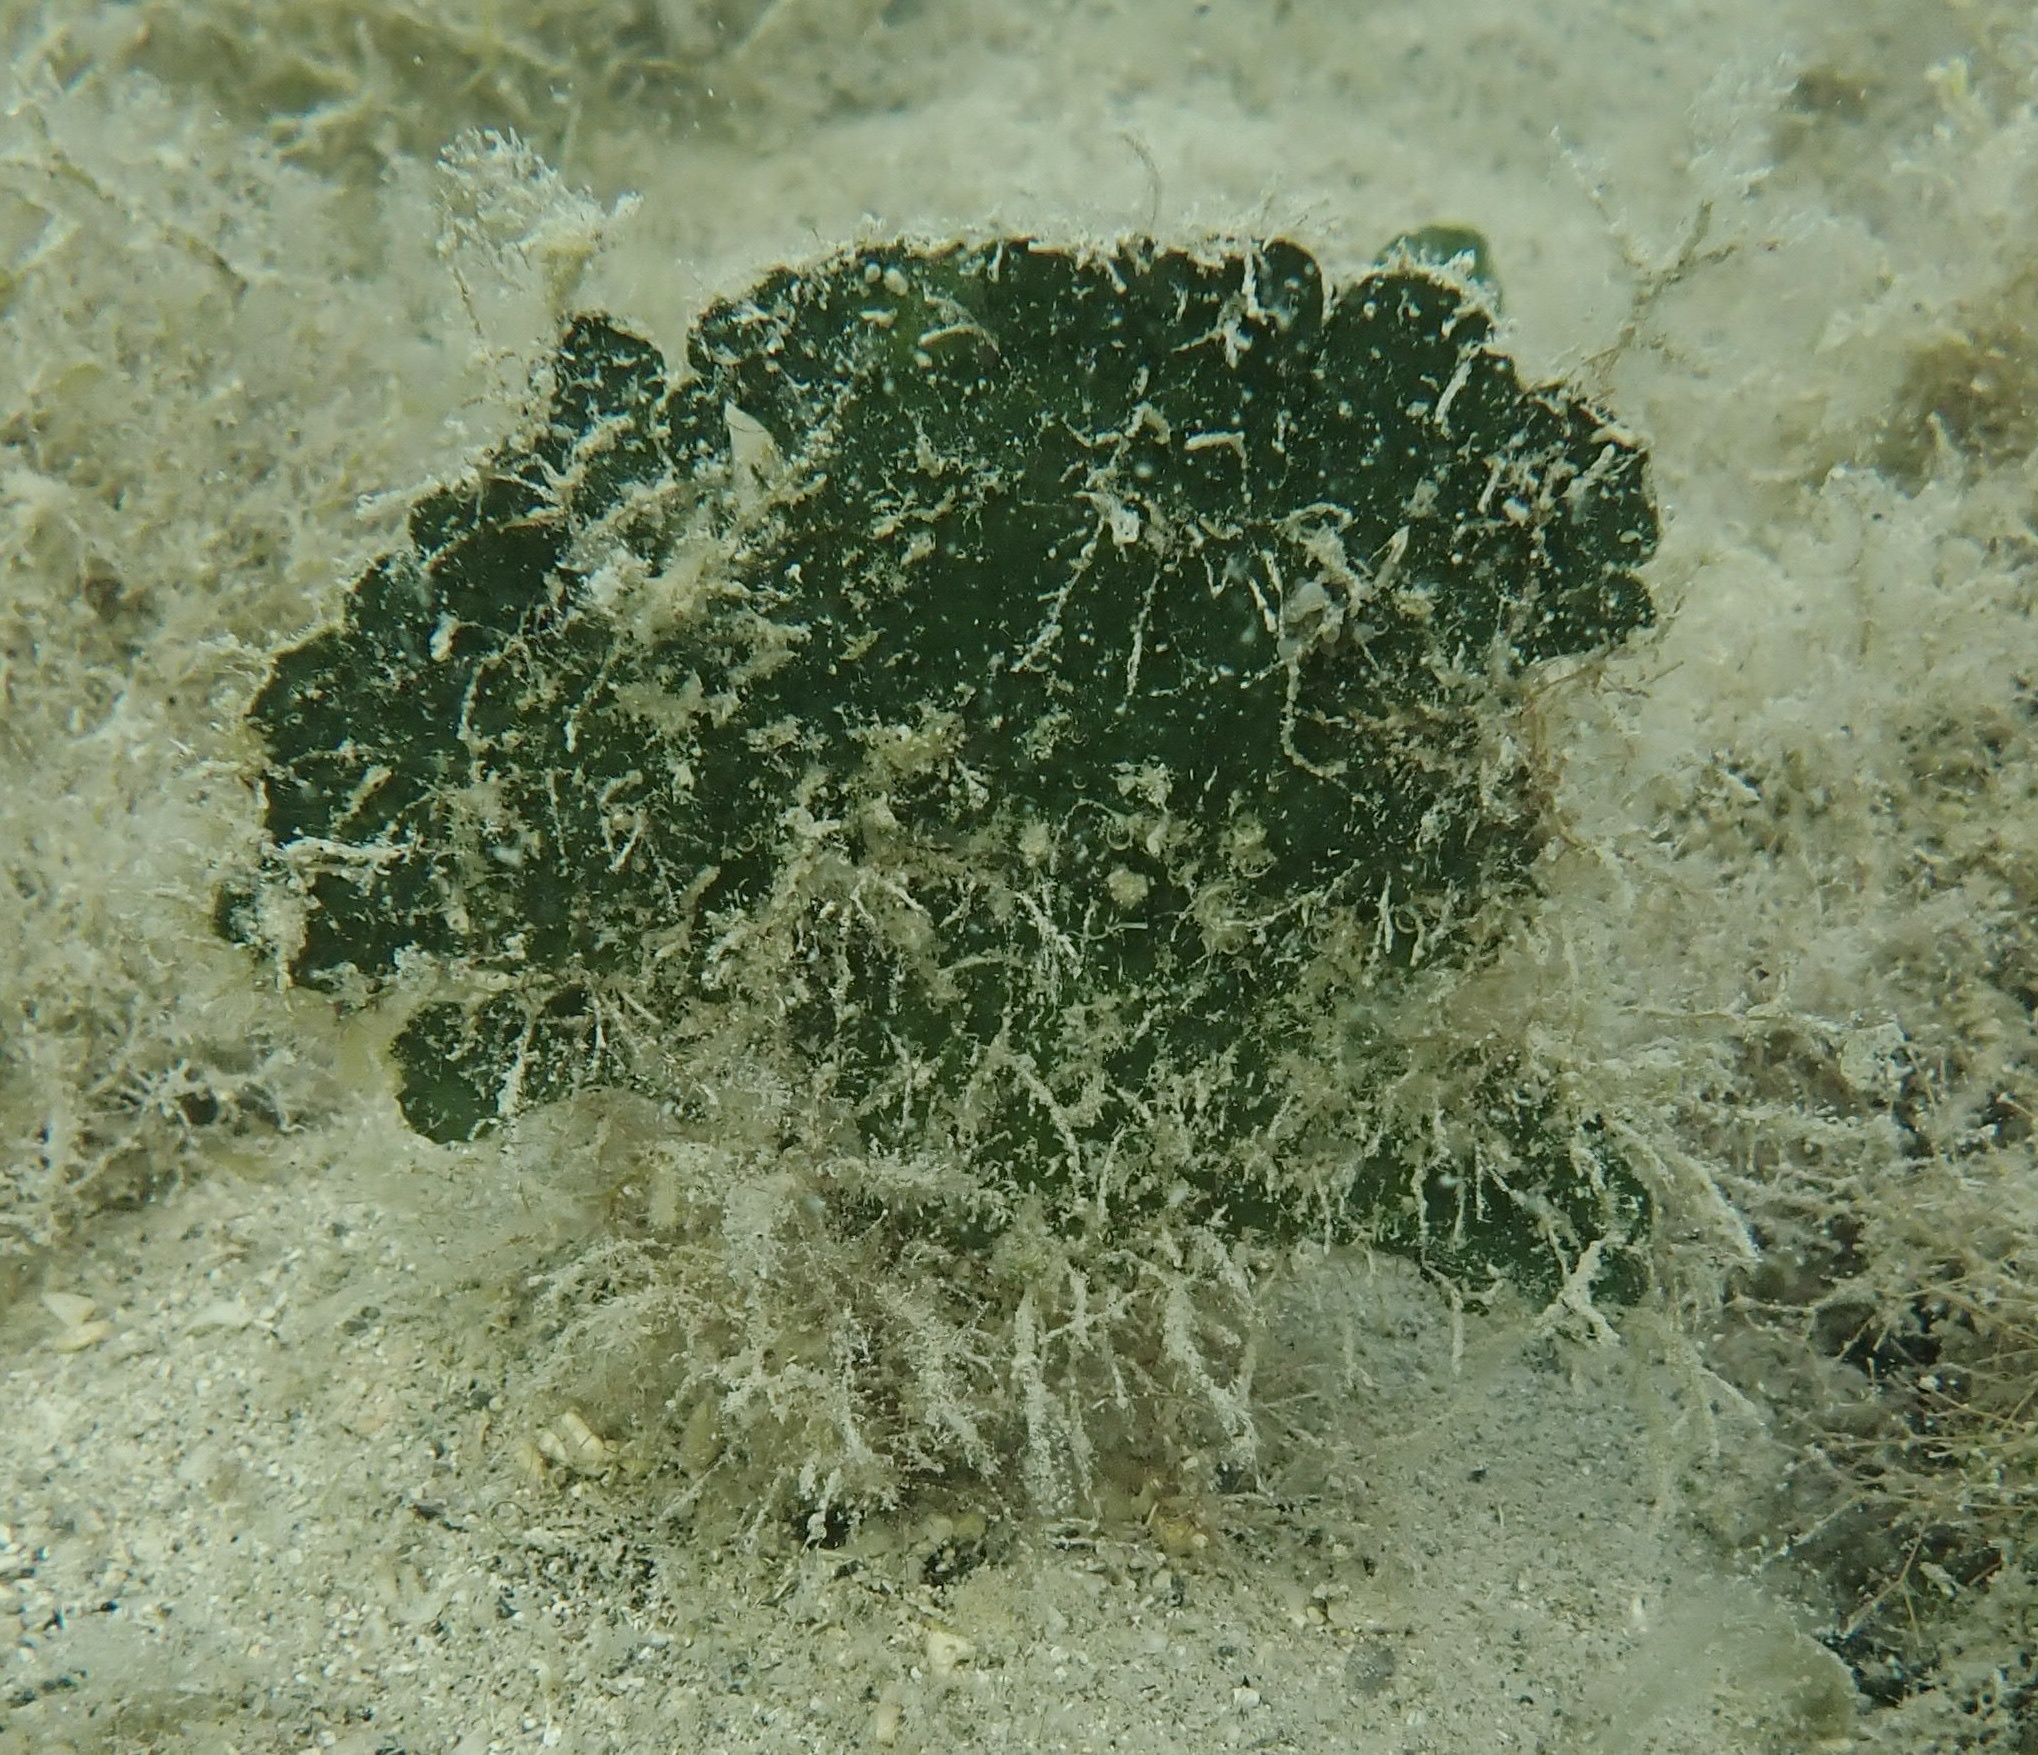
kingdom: Plantae
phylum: Chlorophyta
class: Ulvophyceae
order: Bryopsidales
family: Udoteaceae
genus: Udotea
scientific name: Udotea flabellum
